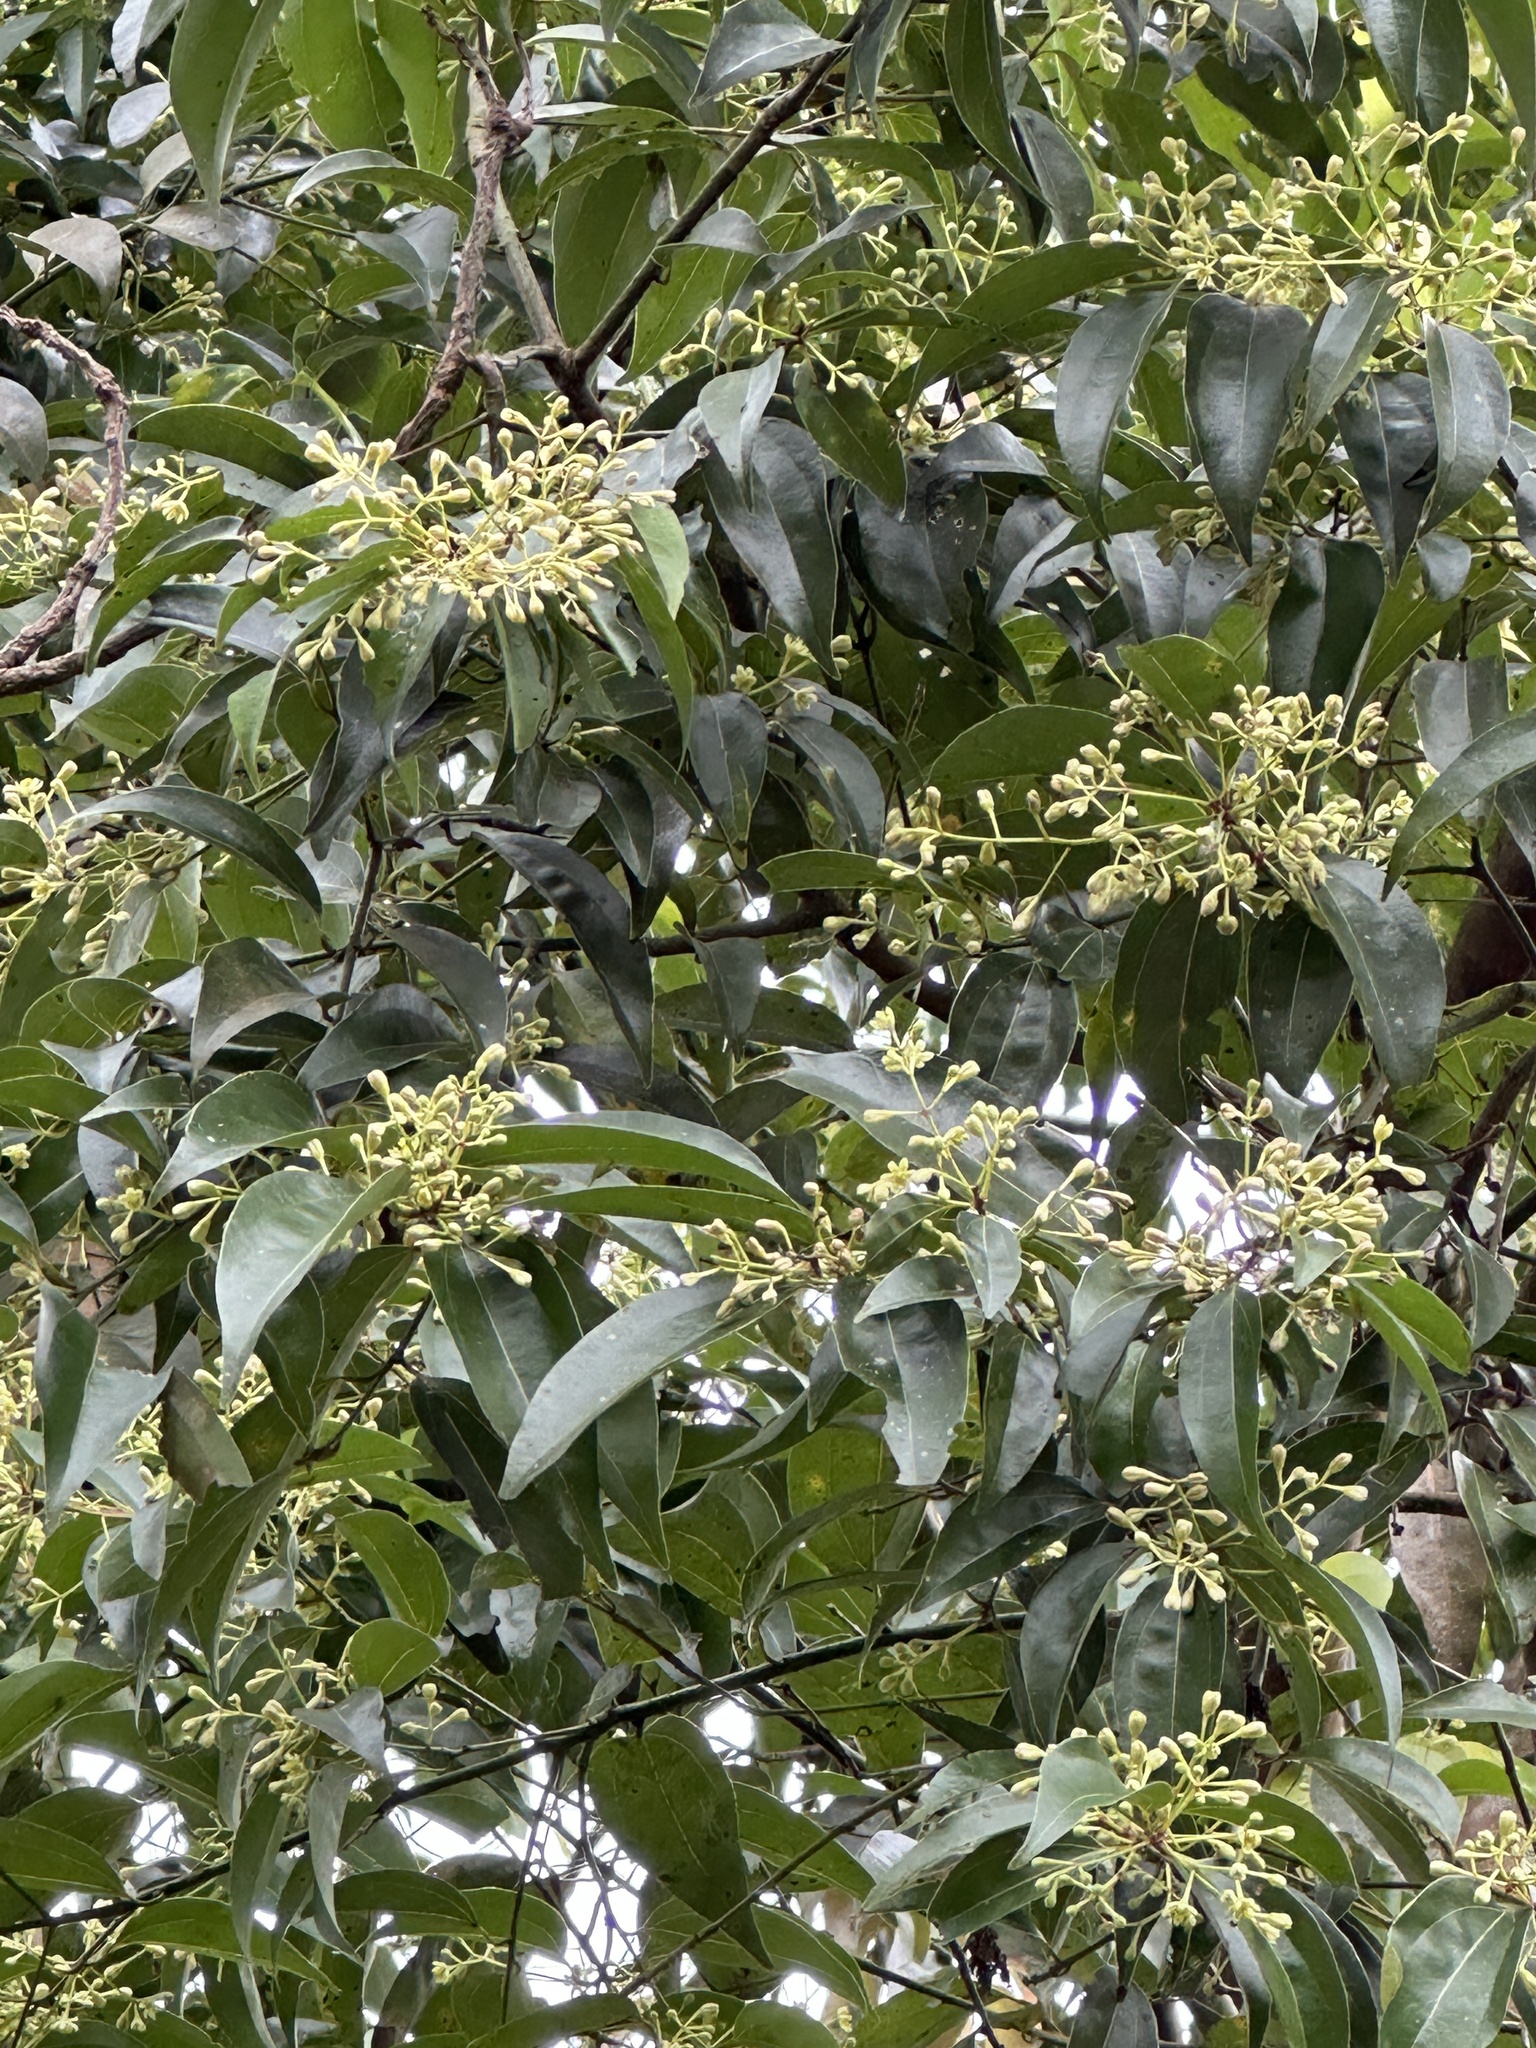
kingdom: Plantae
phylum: Tracheophyta
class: Magnoliopsida
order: Laurales
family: Lauraceae
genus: Cinnamomum
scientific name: Cinnamomum burmanni
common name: Padang cassia
